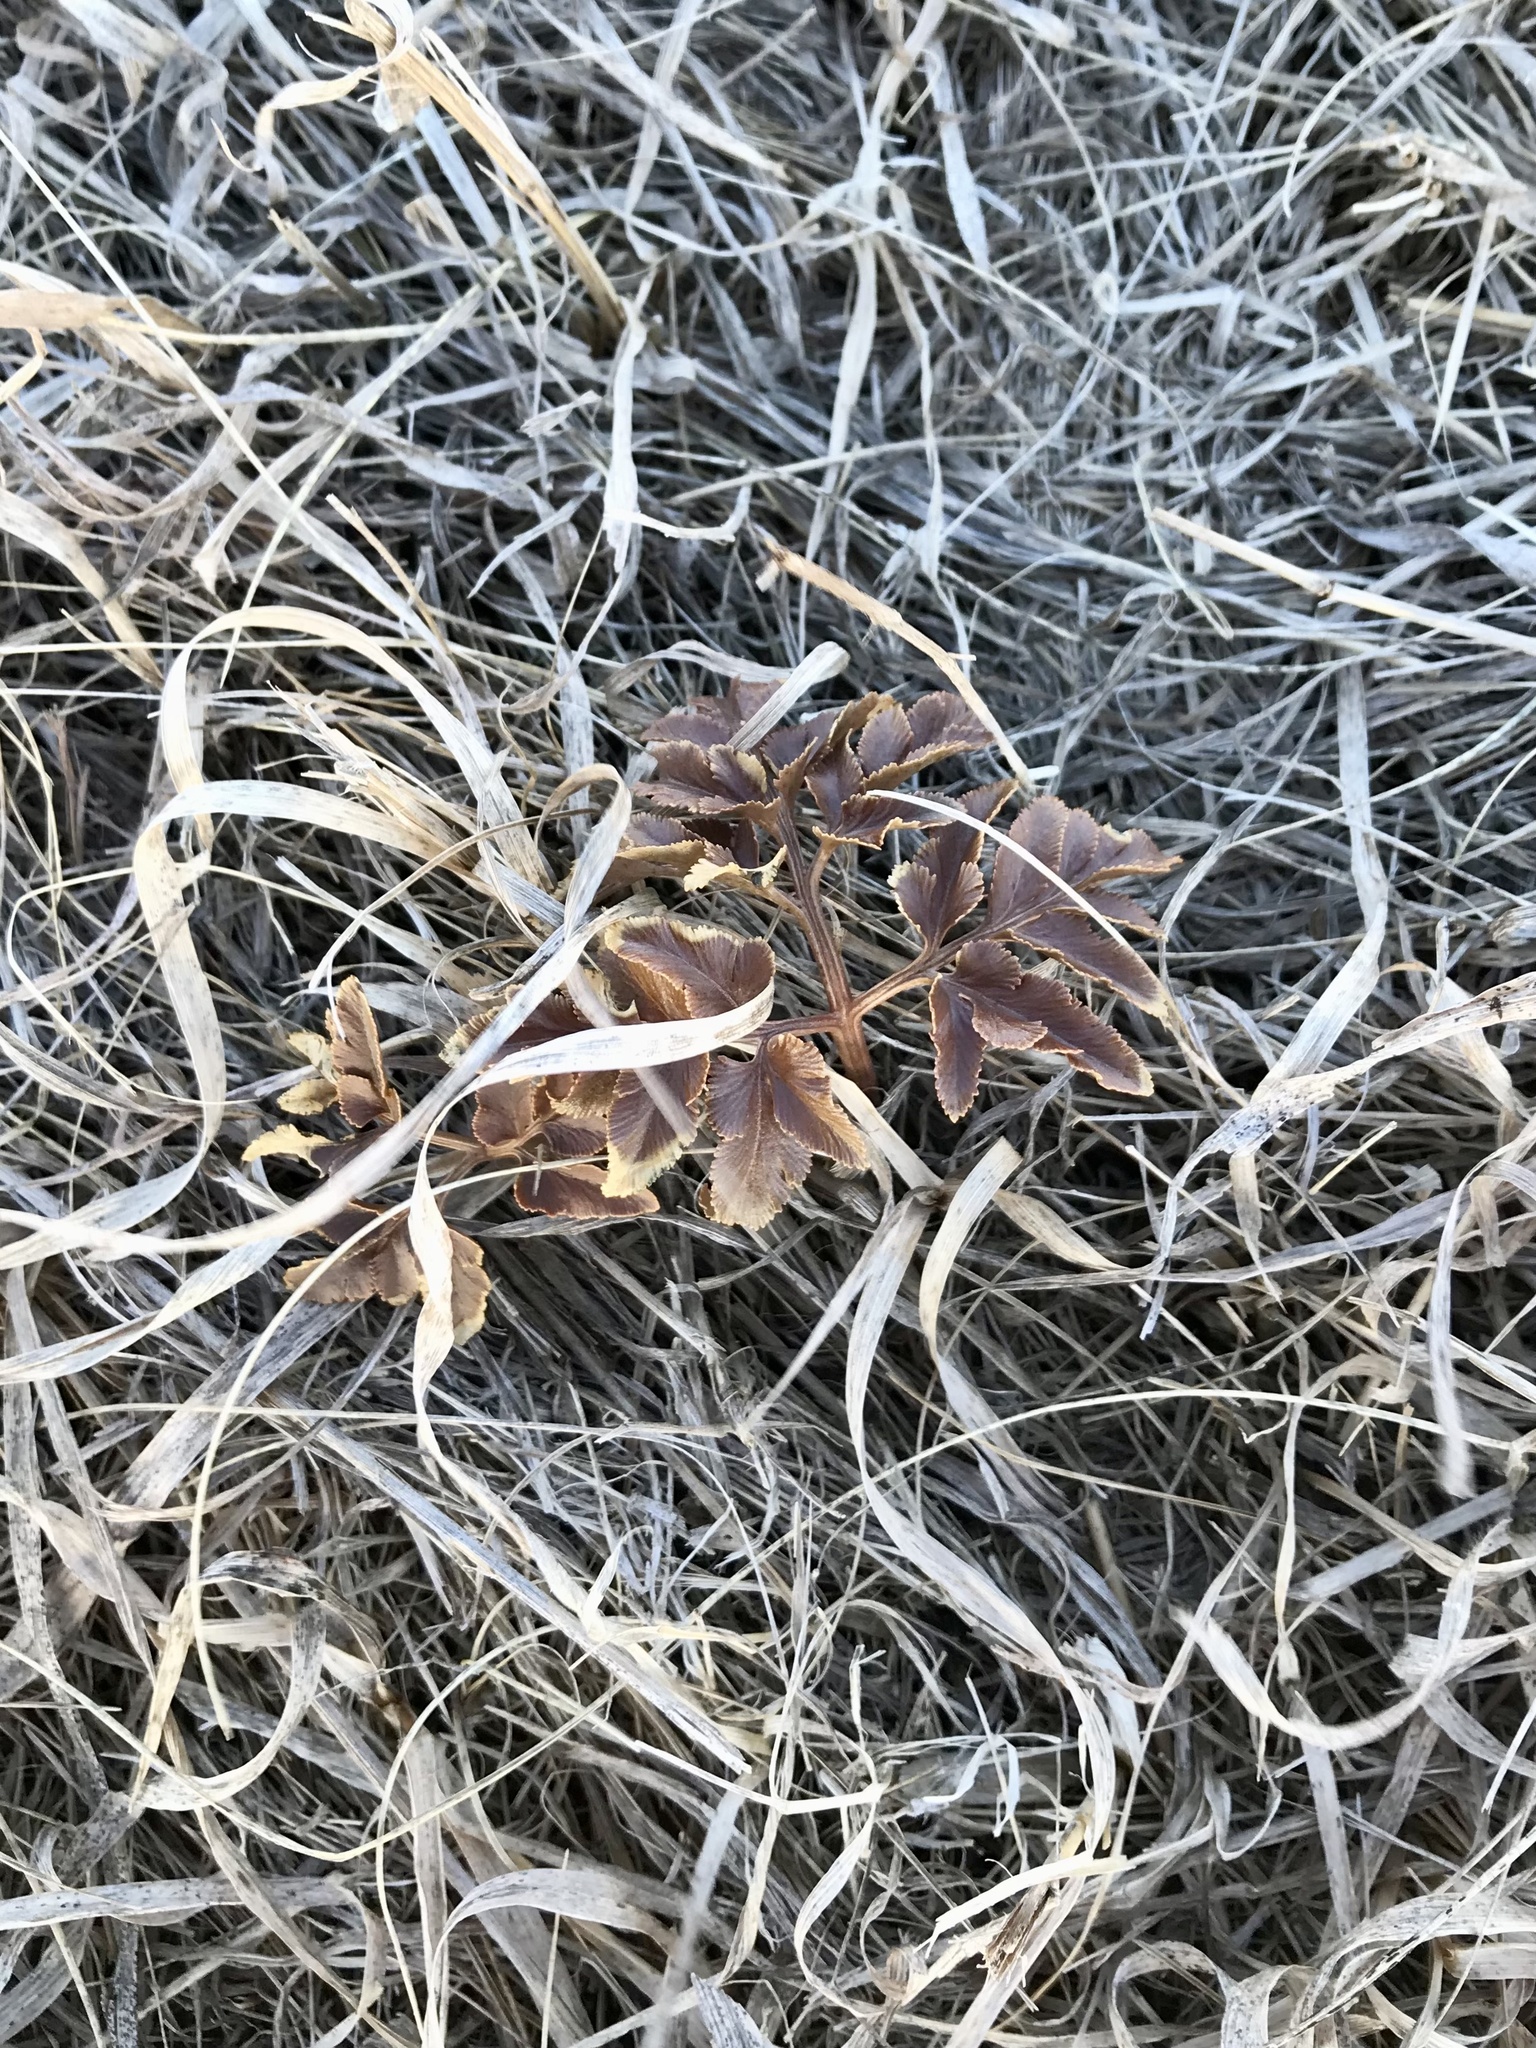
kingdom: Plantae
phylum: Tracheophyta
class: Polypodiopsida
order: Ophioglossales
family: Ophioglossaceae
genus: Sceptridium
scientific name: Sceptridium dissectum
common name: Cut-leaved grapefern
